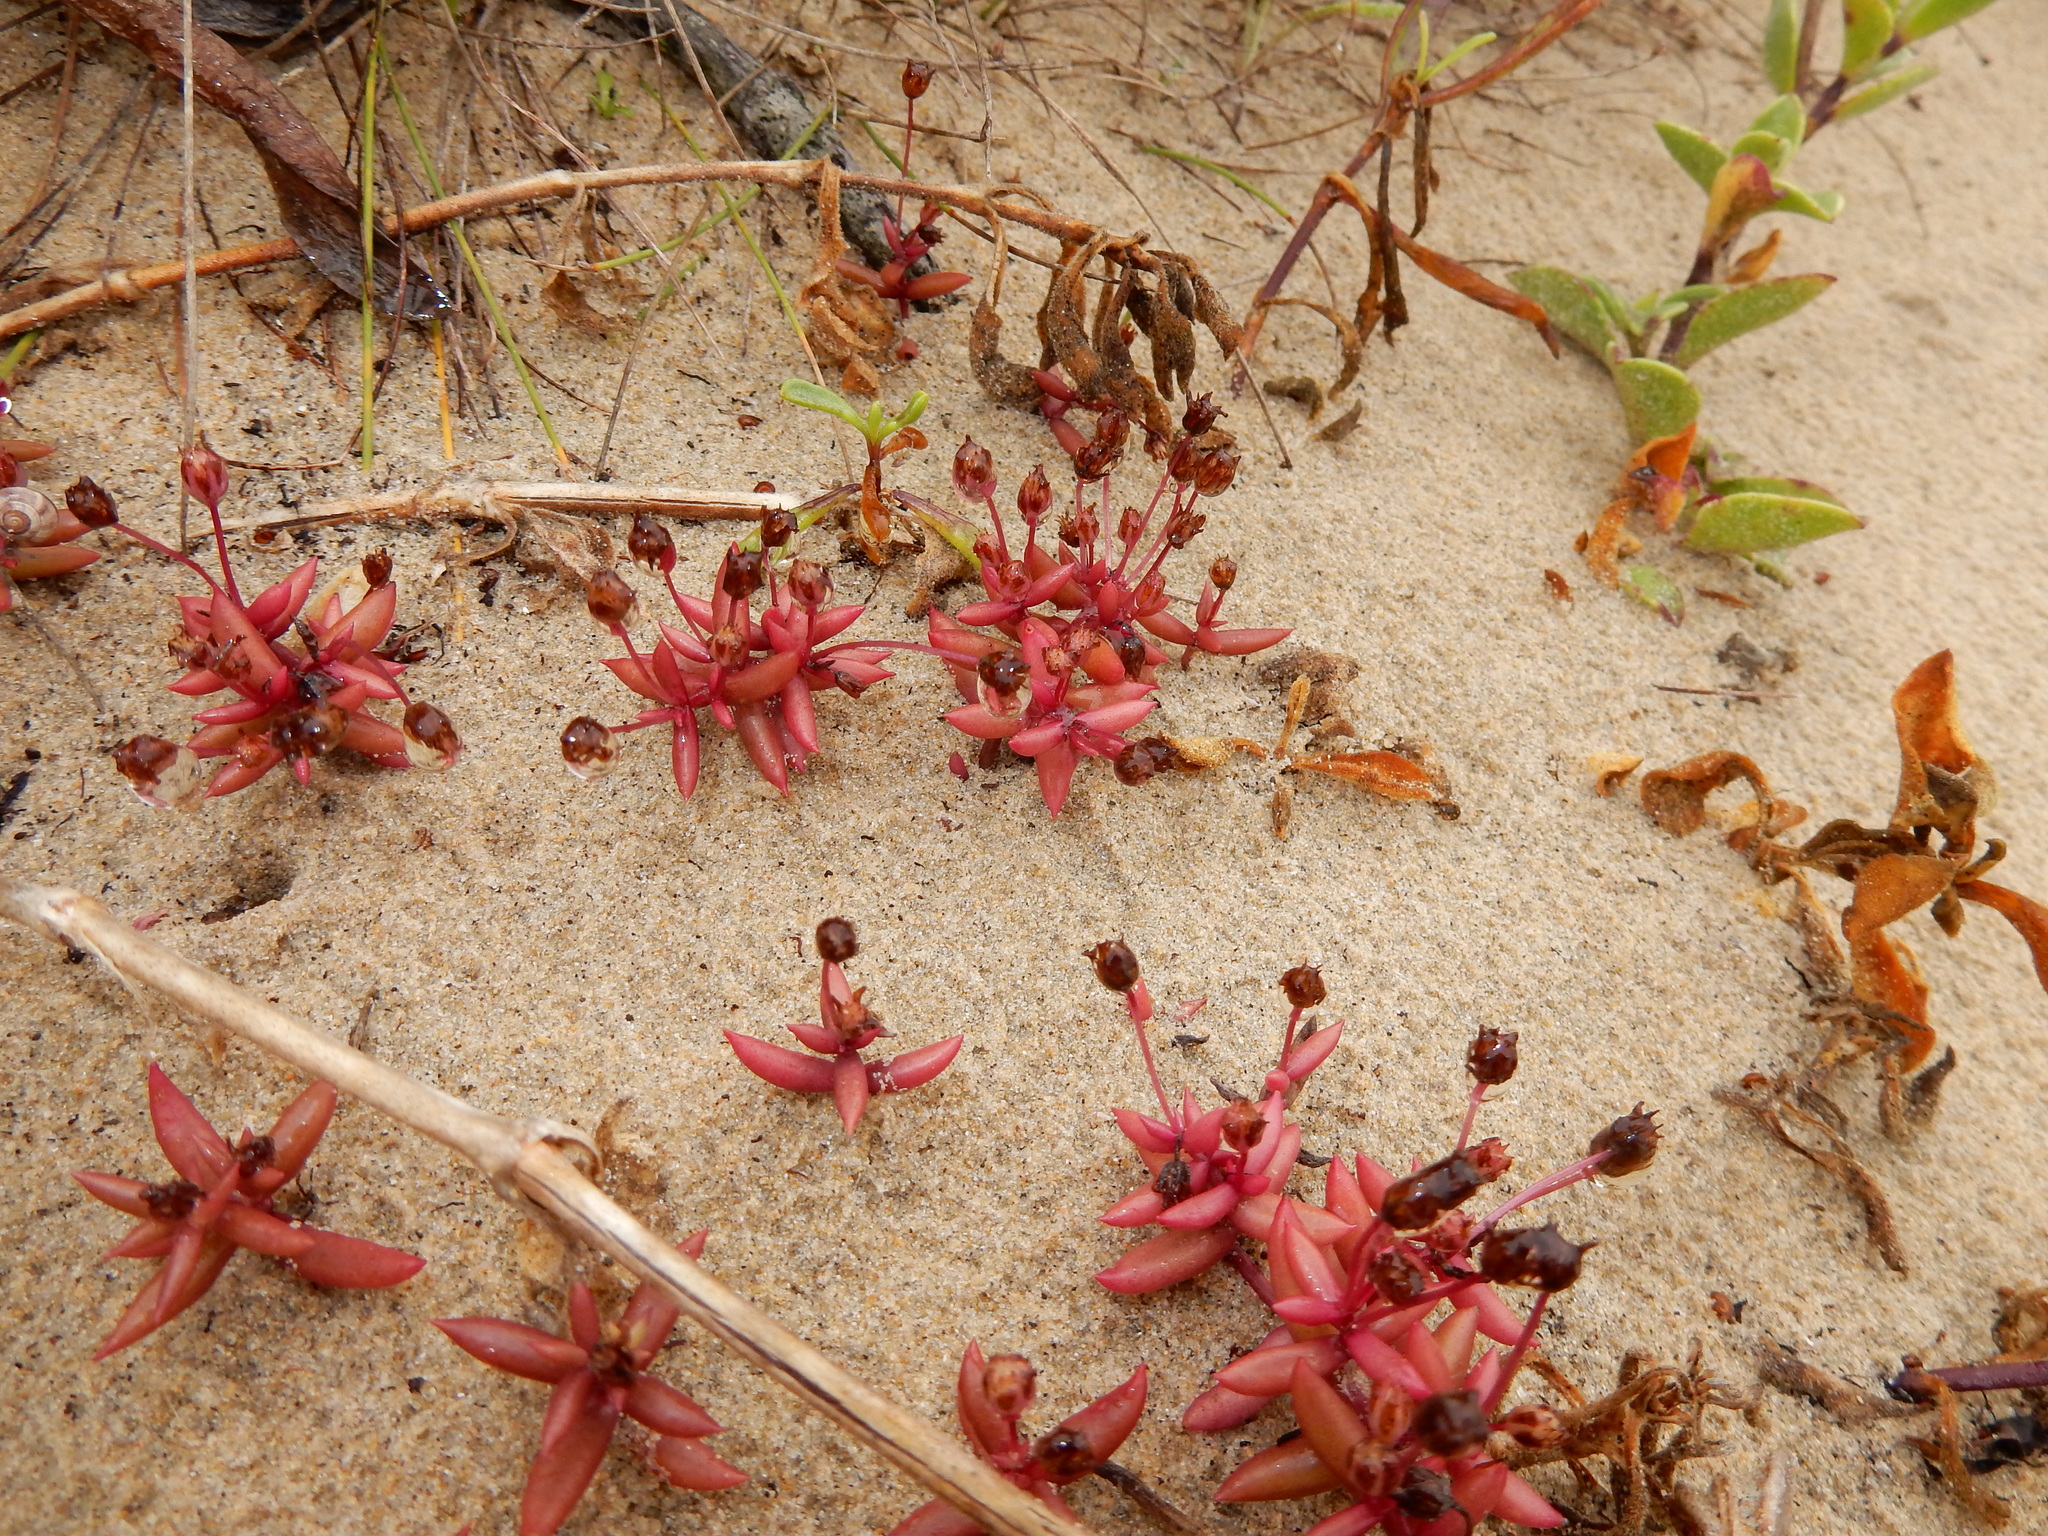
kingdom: Plantae
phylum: Tracheophyta
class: Magnoliopsida
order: Saxifragales
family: Crassulaceae
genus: Crassula
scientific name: Crassula expansa
